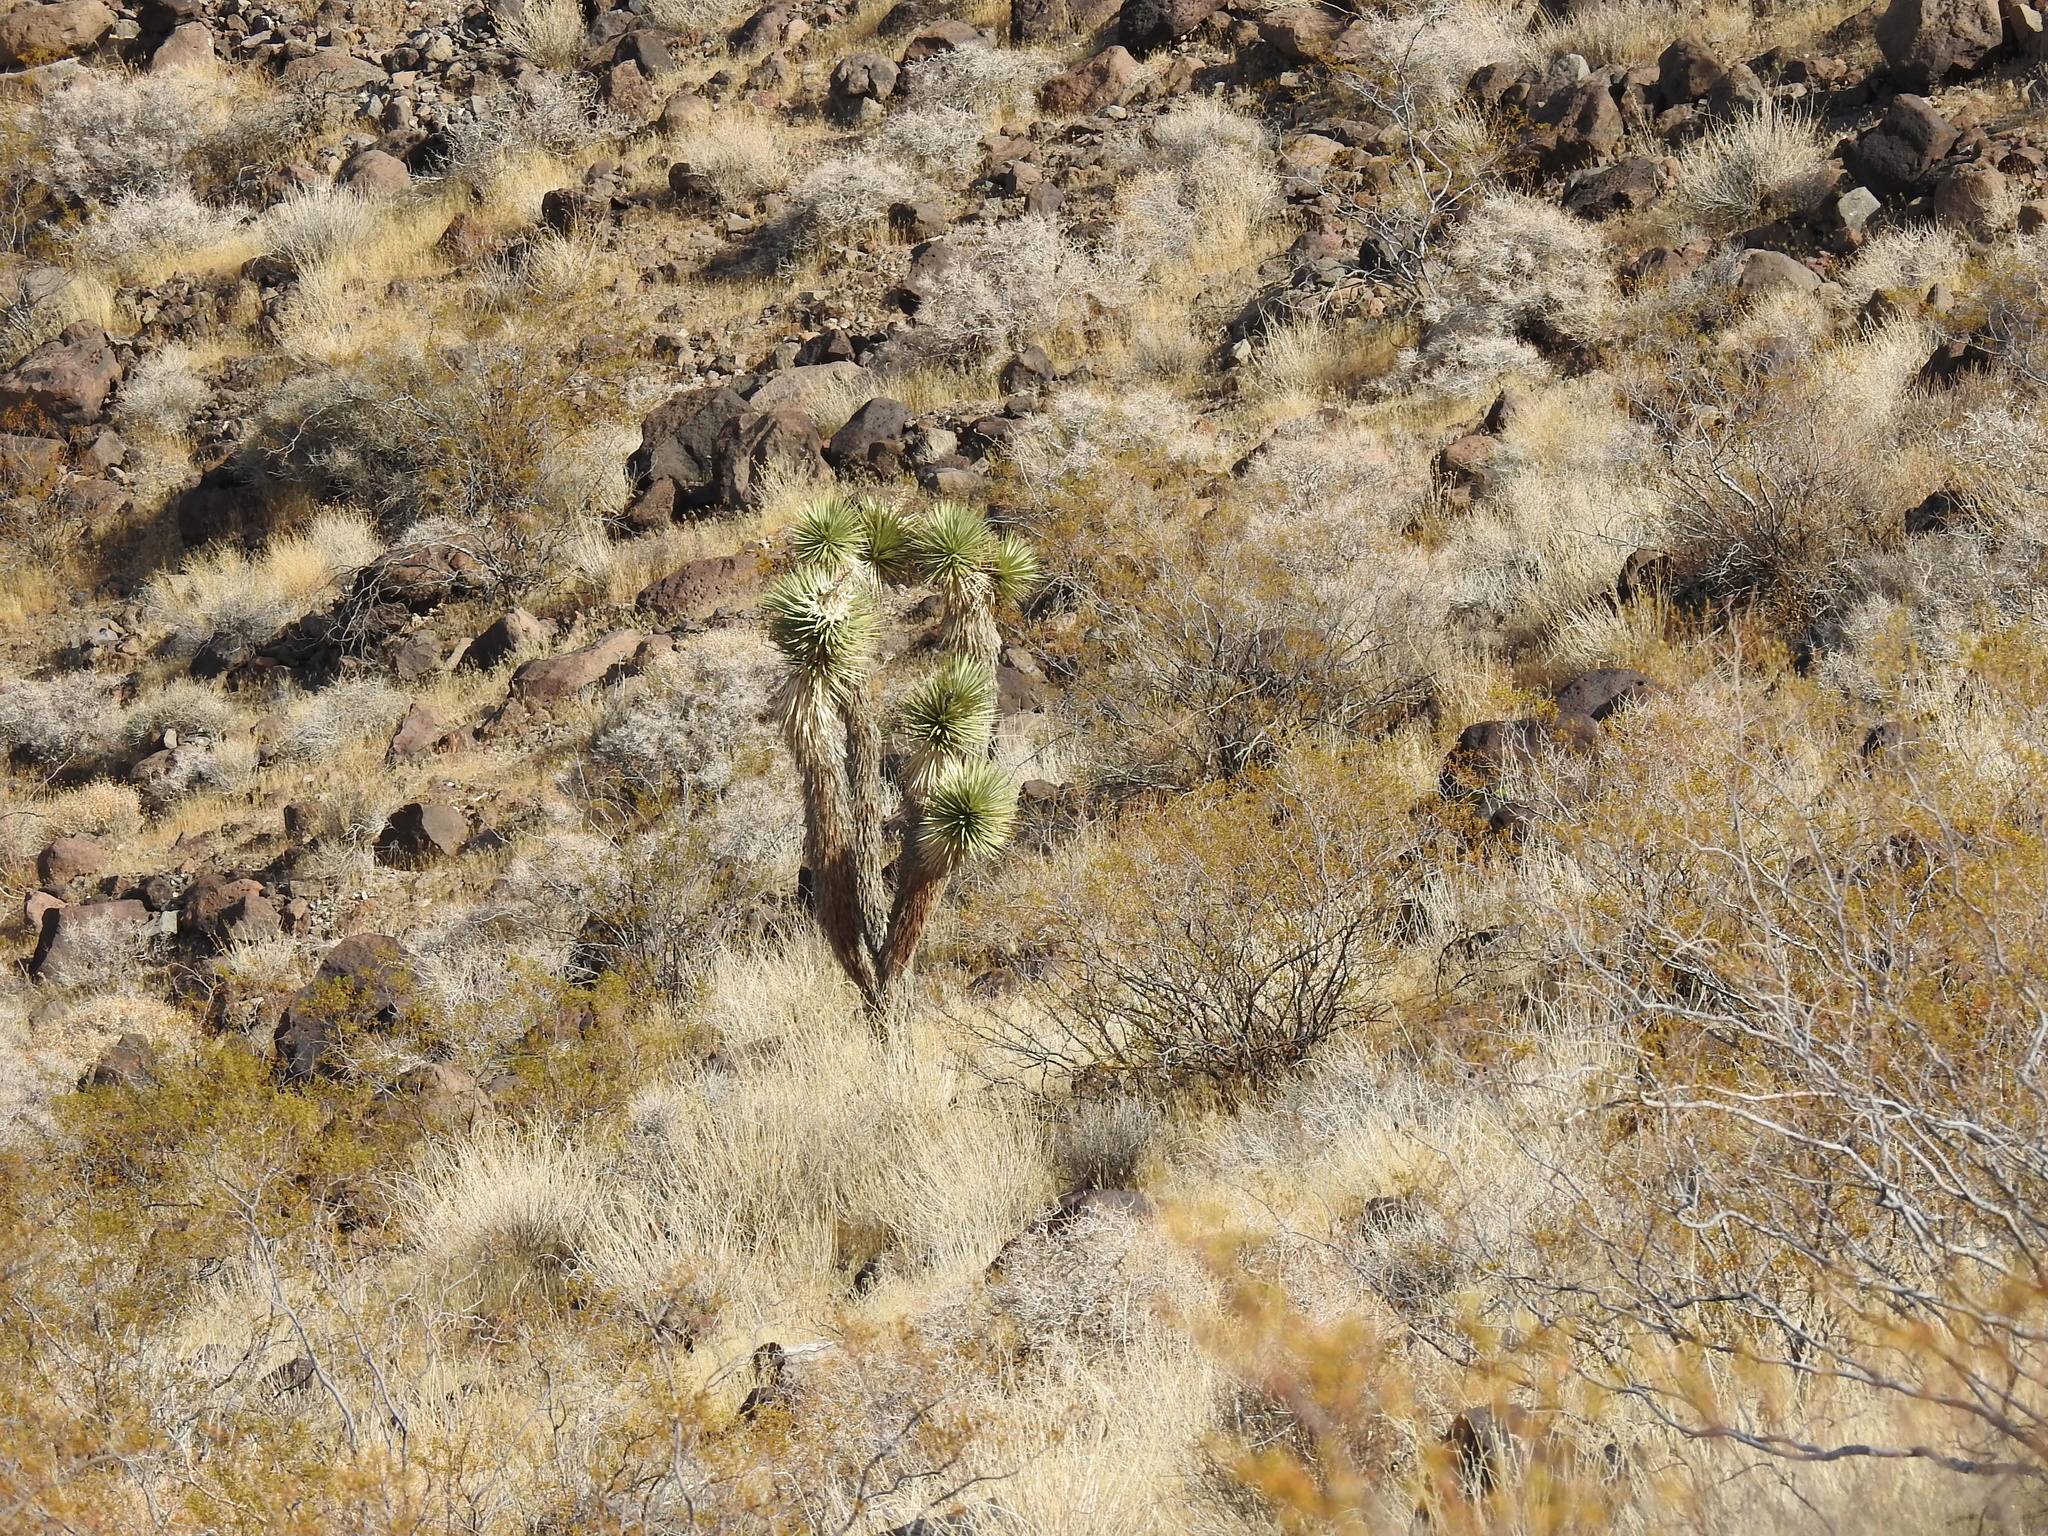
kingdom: Plantae
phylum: Tracheophyta
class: Liliopsida
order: Asparagales
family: Asparagaceae
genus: Yucca
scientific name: Yucca brevifolia
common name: Joshua tree
